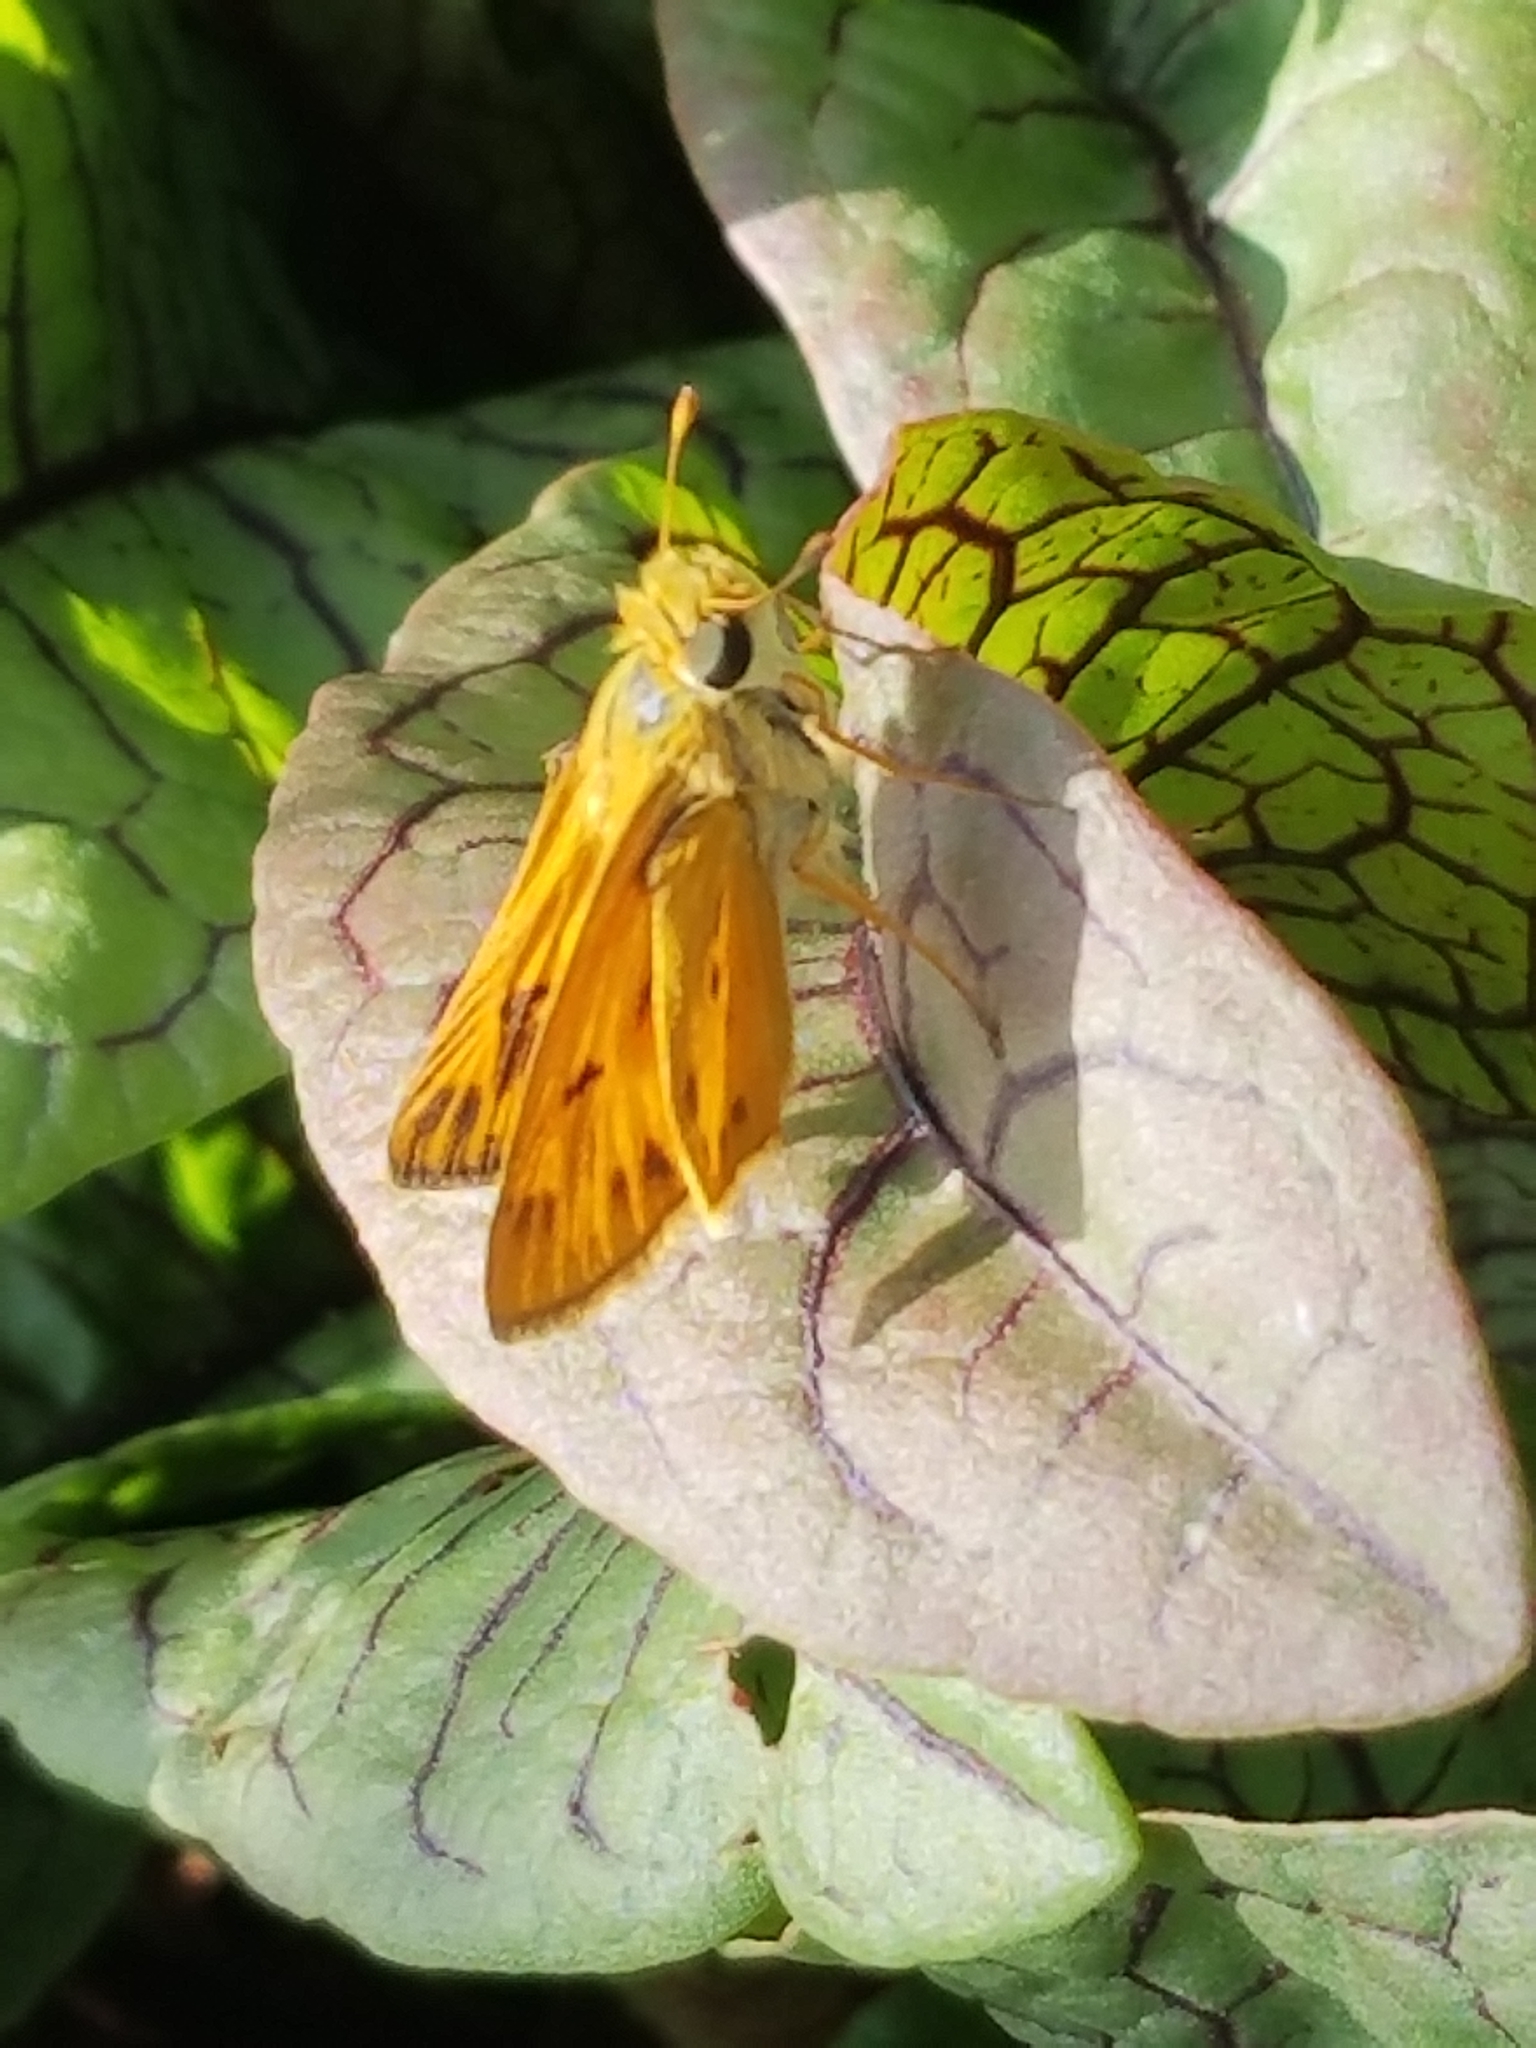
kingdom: Animalia
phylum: Arthropoda
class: Insecta
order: Lepidoptera
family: Hesperiidae
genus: Hylephila
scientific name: Hylephila phyleus
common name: Fiery skipper
